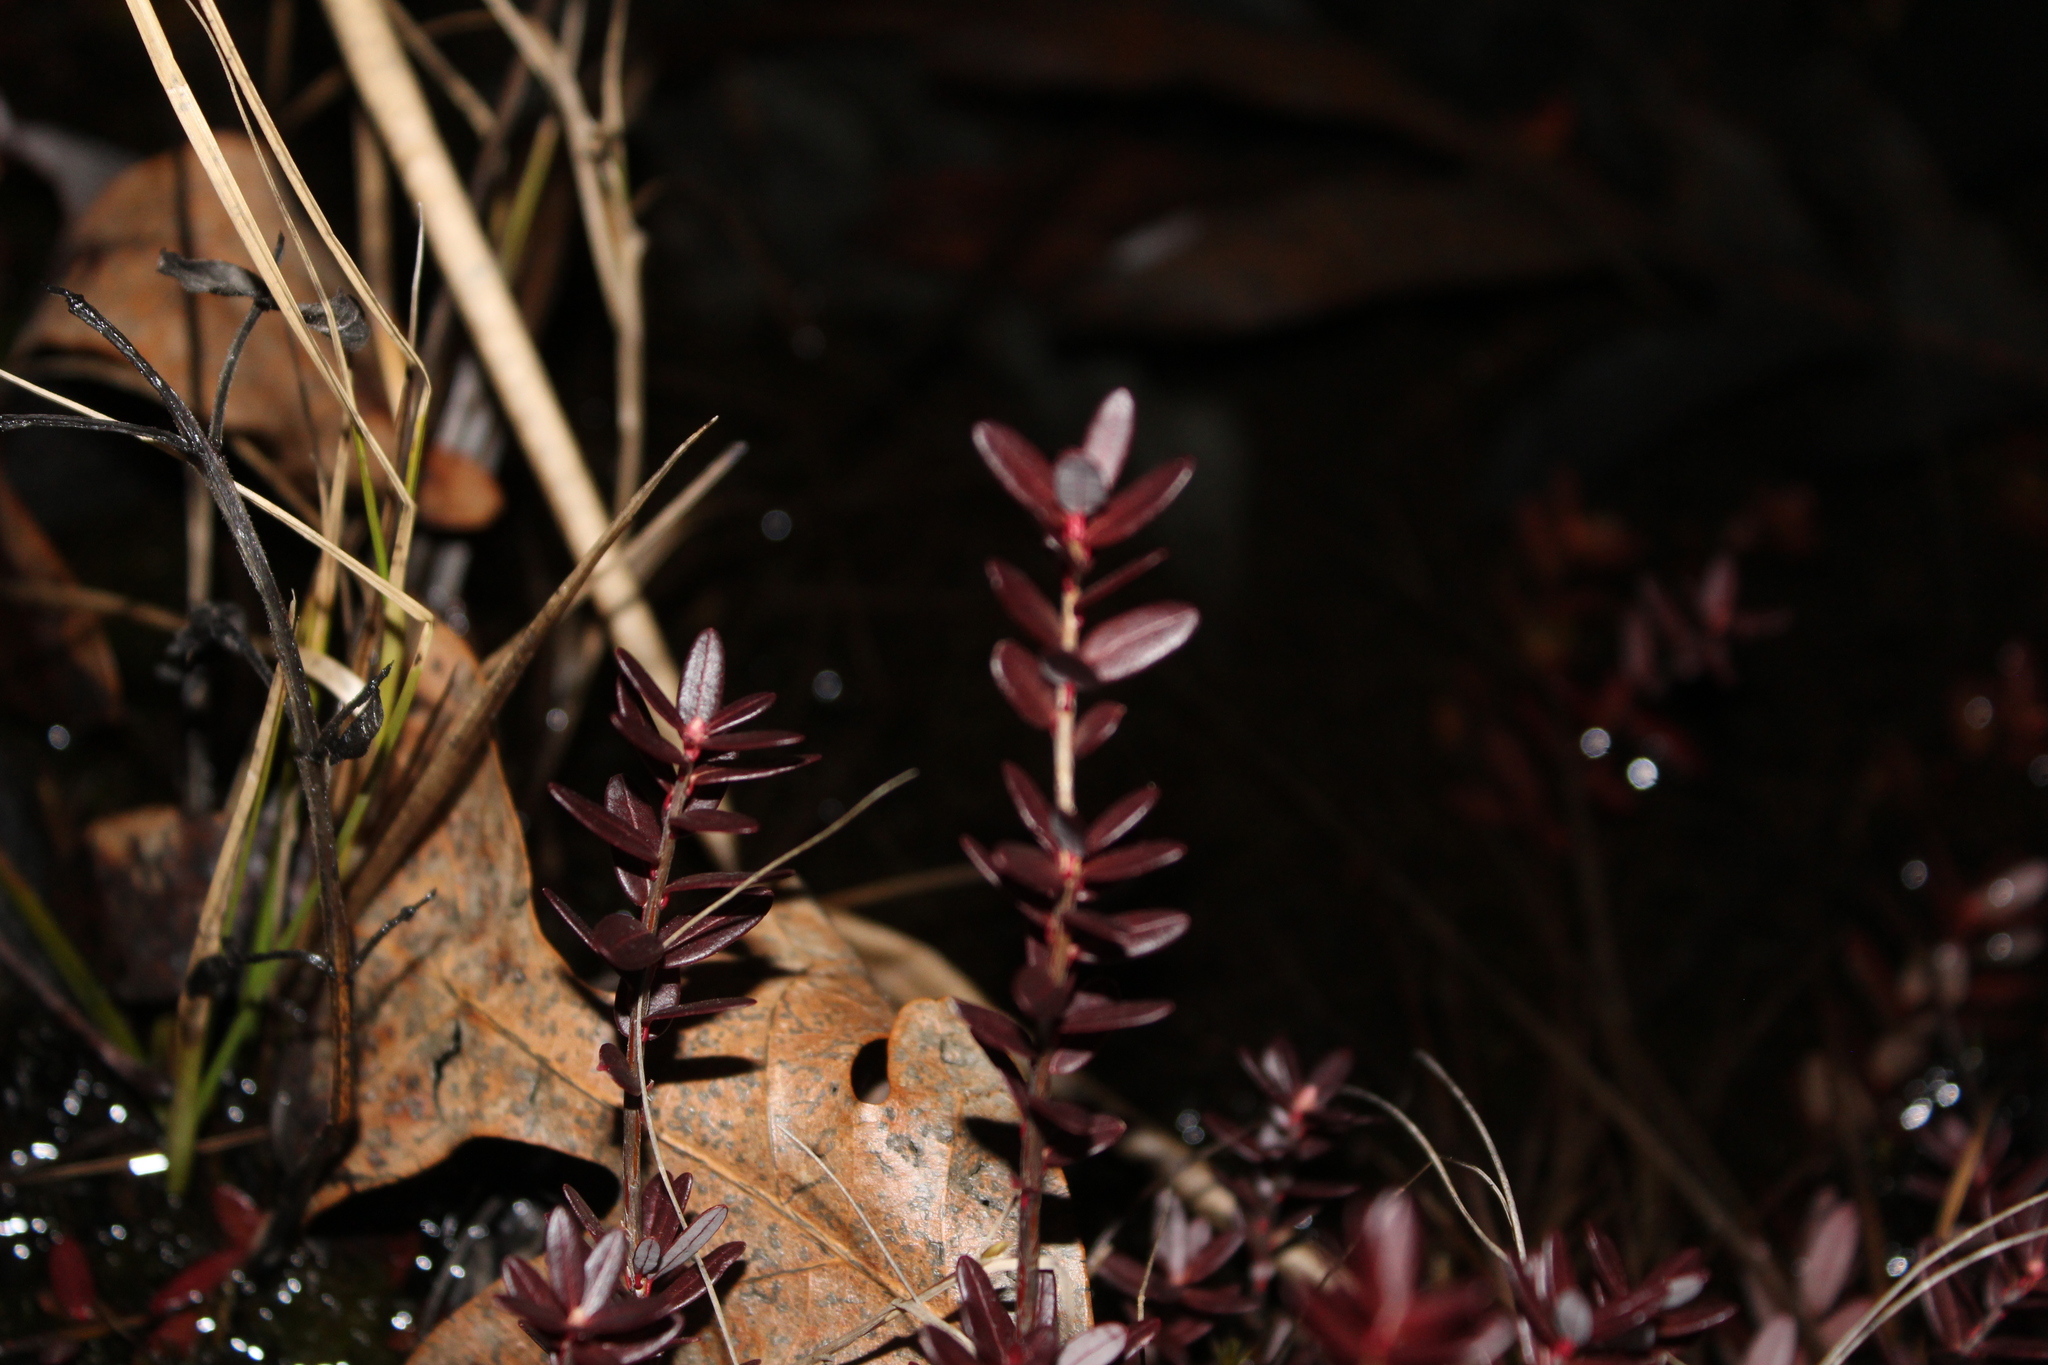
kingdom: Plantae
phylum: Tracheophyta
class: Magnoliopsida
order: Ericales
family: Ericaceae
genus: Vaccinium
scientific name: Vaccinium macrocarpon
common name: American cranberry
